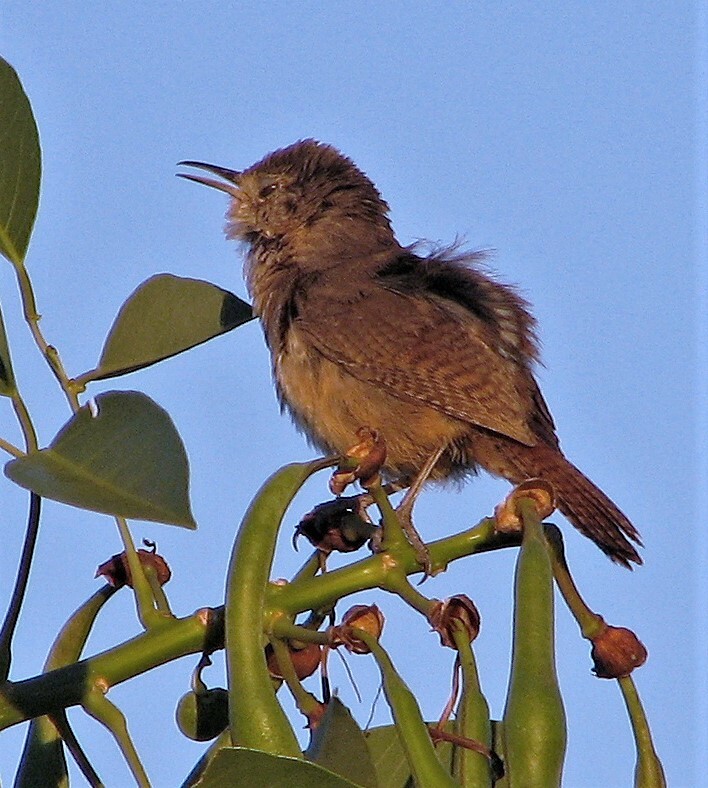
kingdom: Animalia
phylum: Chordata
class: Aves
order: Passeriformes
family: Troglodytidae
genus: Troglodytes
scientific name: Troglodytes aedon
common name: House wren
